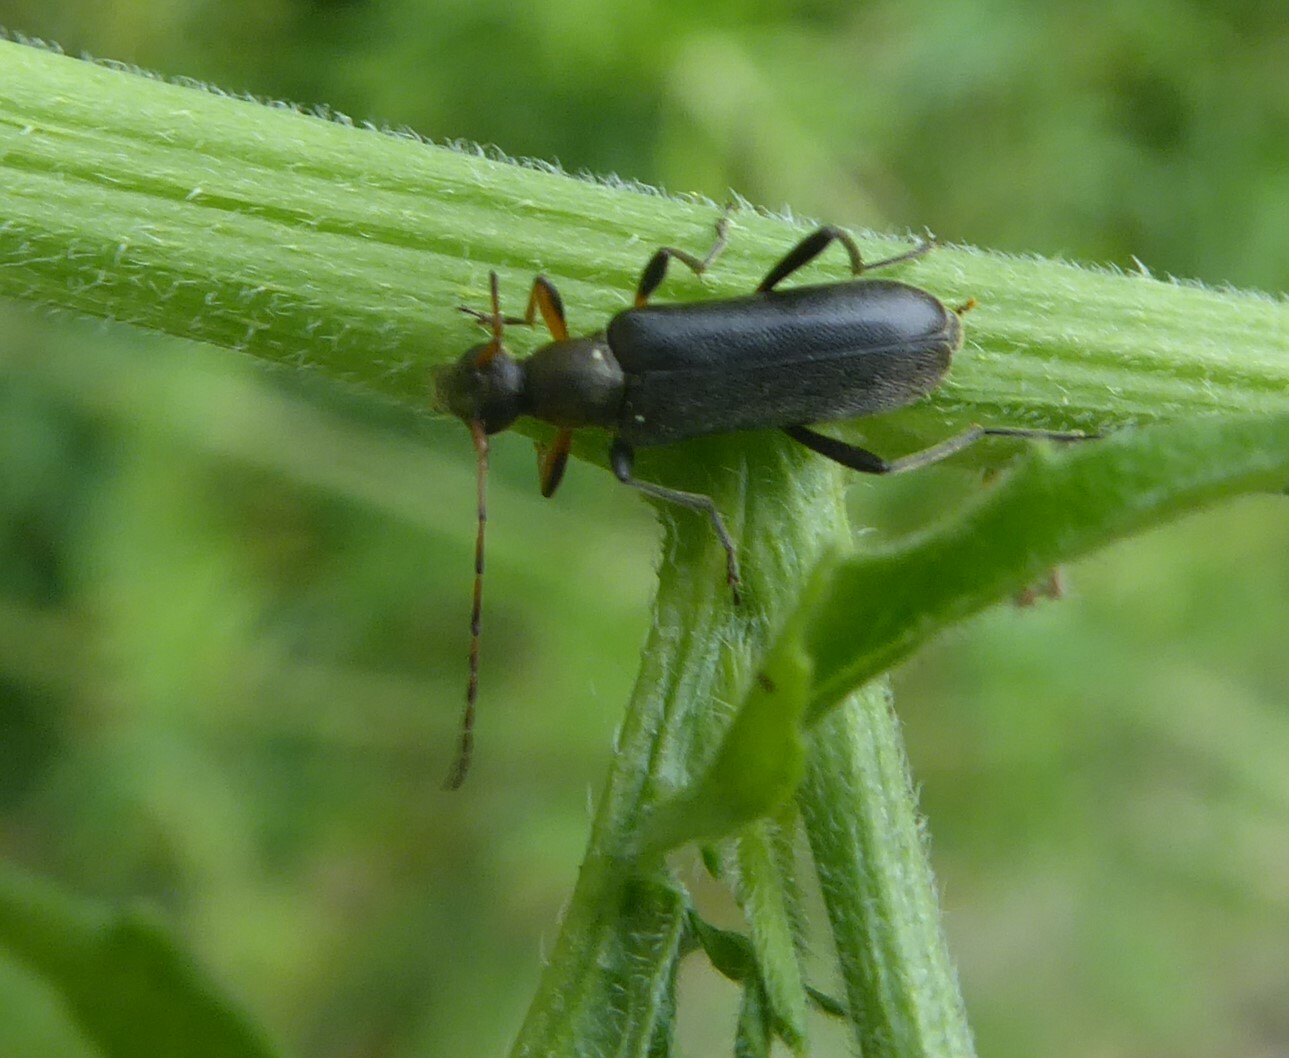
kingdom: Animalia
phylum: Arthropoda
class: Insecta
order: Coleoptera
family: Cerambycidae
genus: Grammoptera
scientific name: Grammoptera ruficornis
